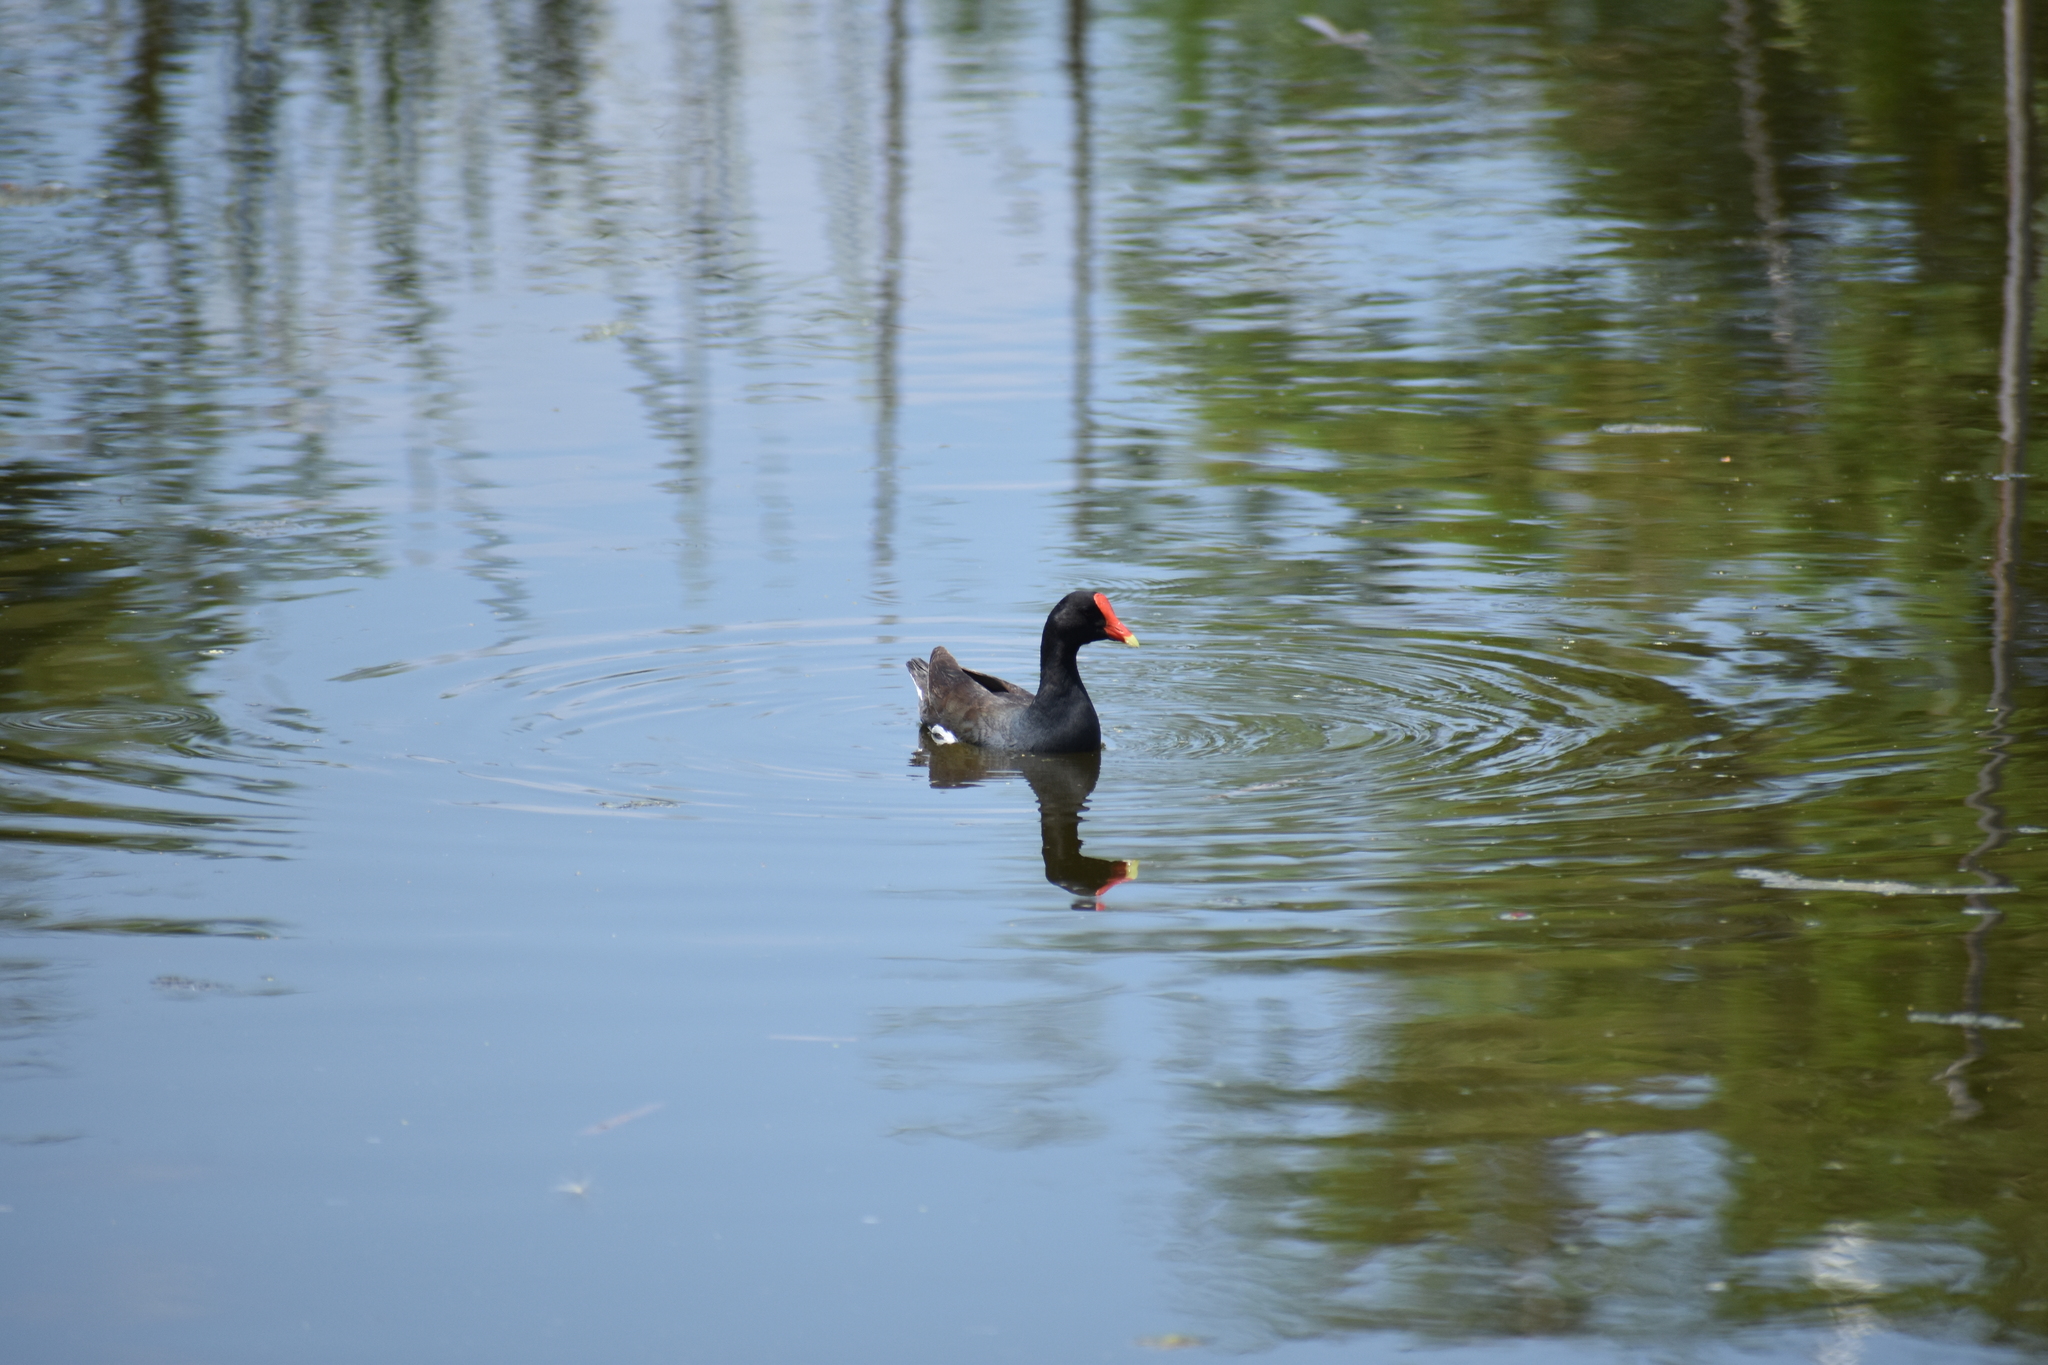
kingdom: Animalia
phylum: Chordata
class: Aves
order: Gruiformes
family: Rallidae
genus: Gallinula
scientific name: Gallinula chloropus
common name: Common moorhen
